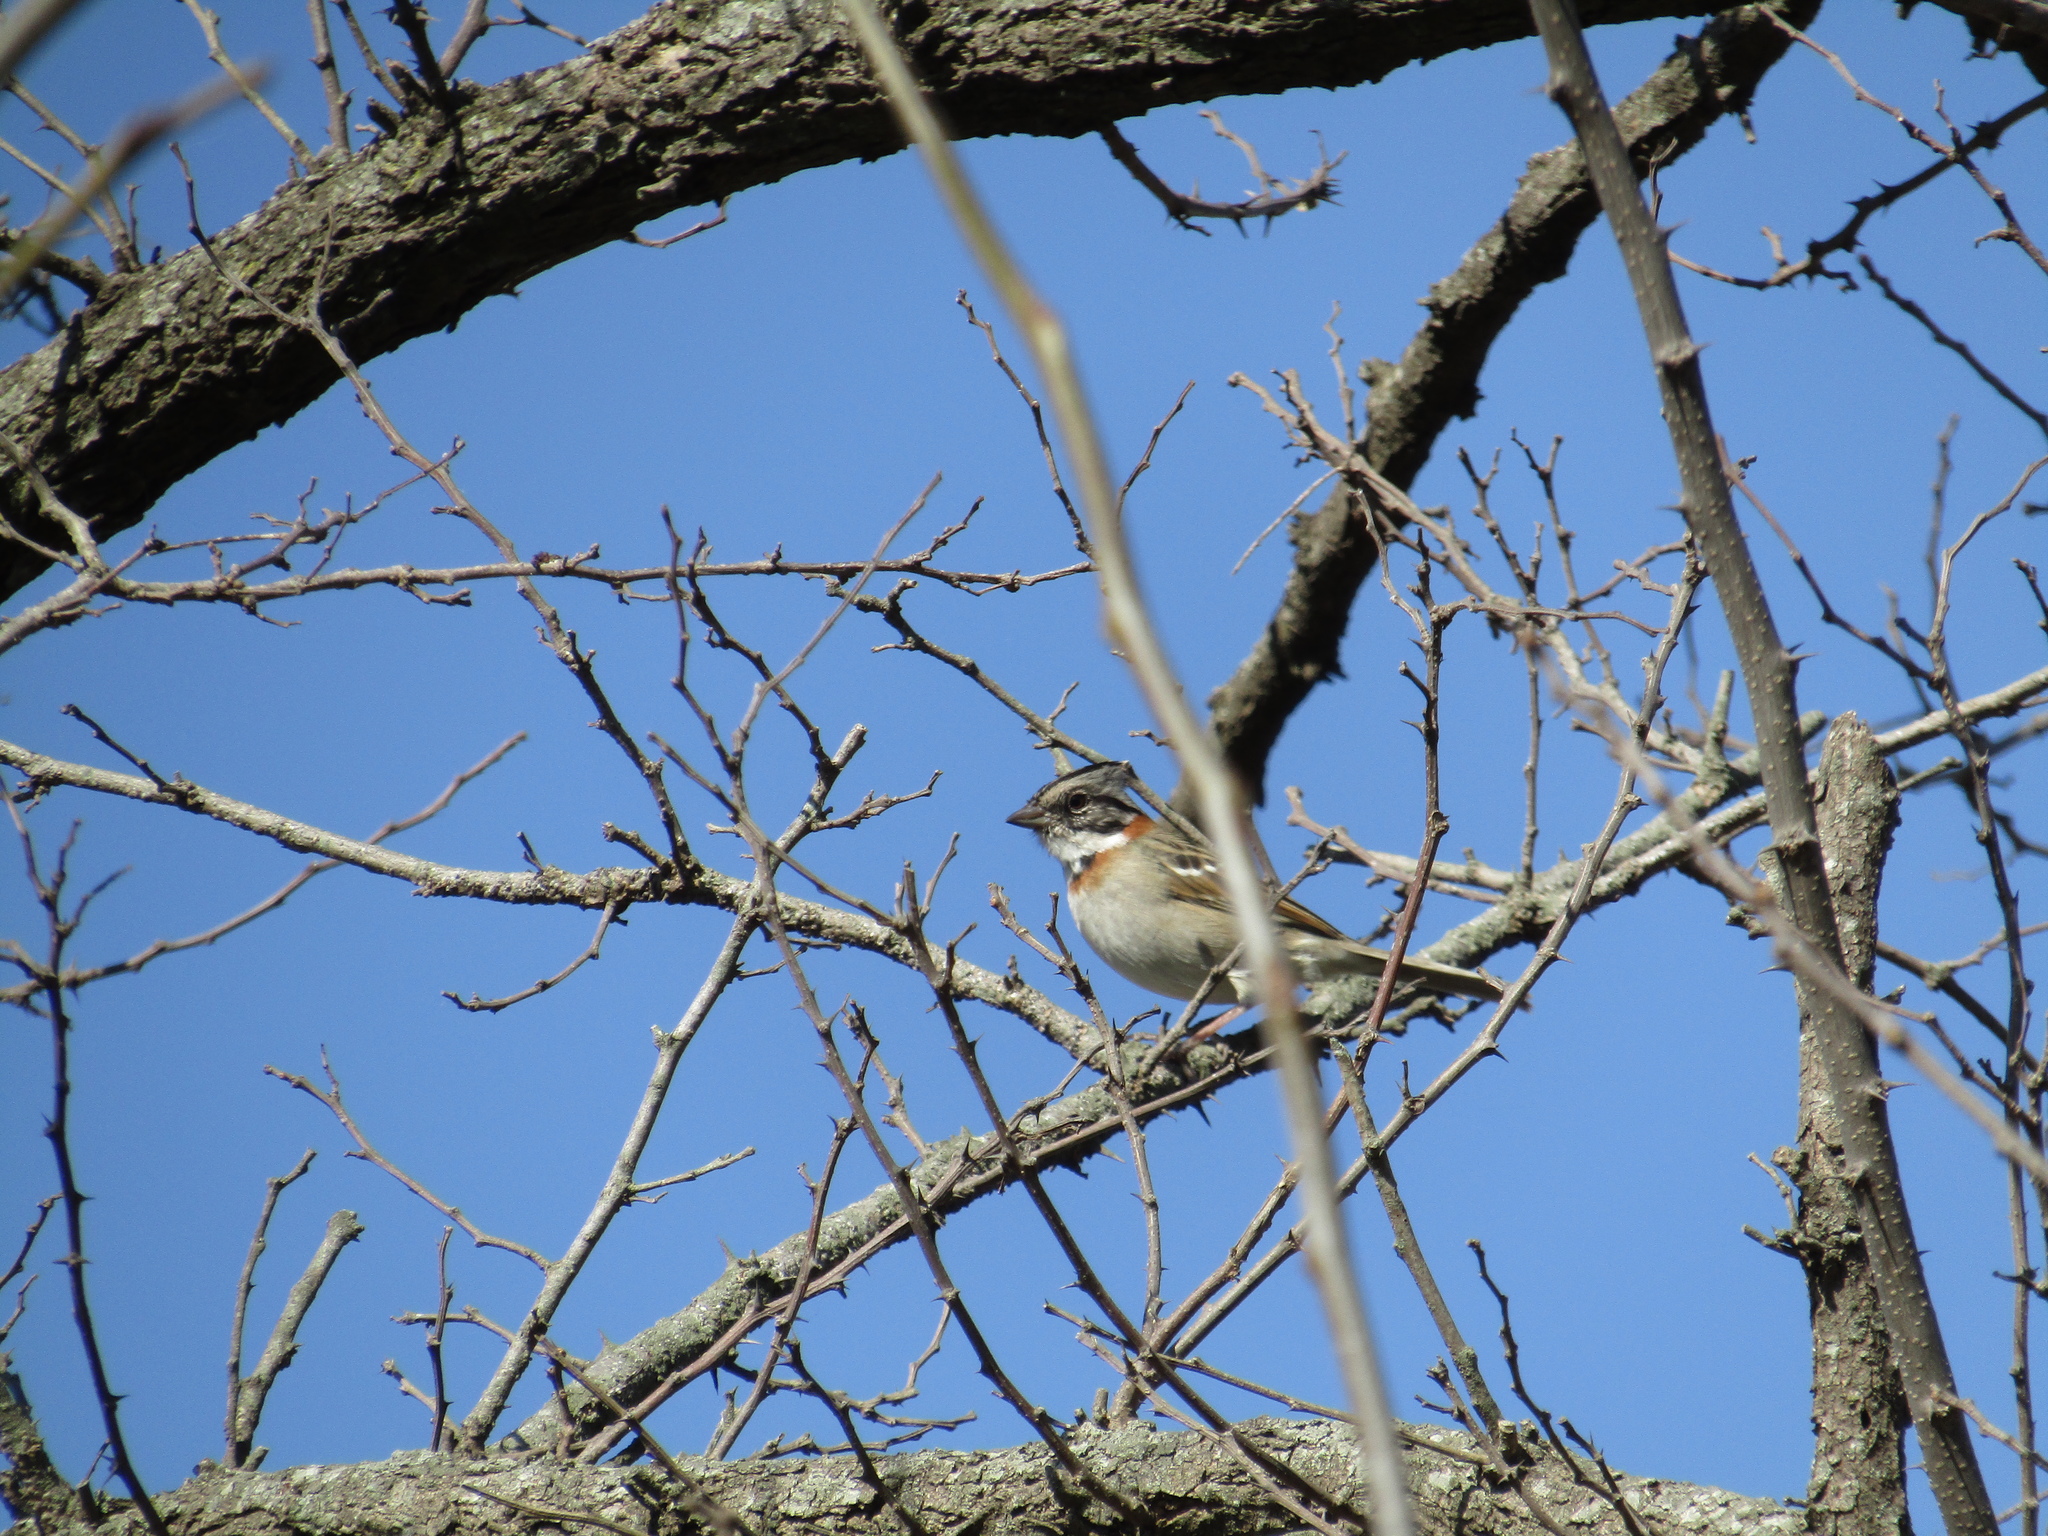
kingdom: Animalia
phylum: Chordata
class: Aves
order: Passeriformes
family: Passerellidae
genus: Zonotrichia
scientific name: Zonotrichia capensis
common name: Rufous-collared sparrow
